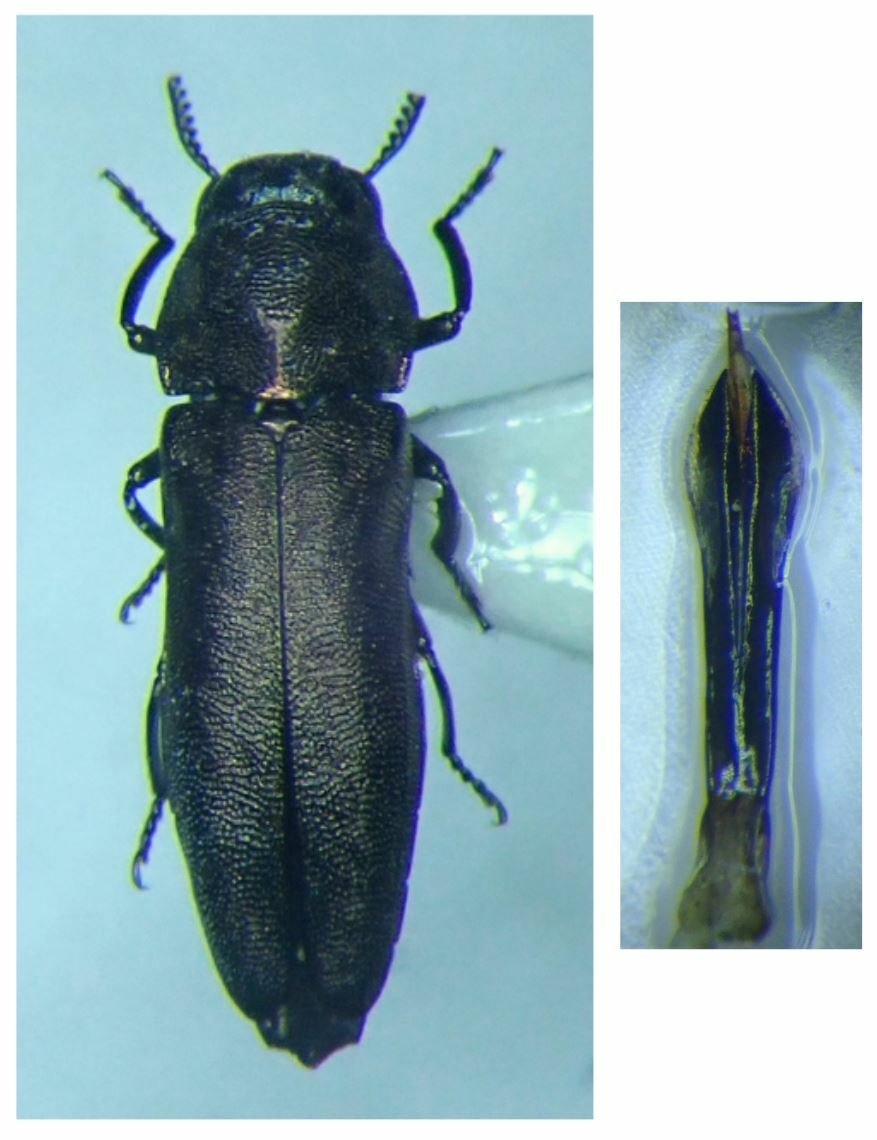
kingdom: Animalia
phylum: Arthropoda
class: Insecta
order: Coleoptera
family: Buprestidae
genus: Meliboeus
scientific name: Meliboeus gibbicollis
